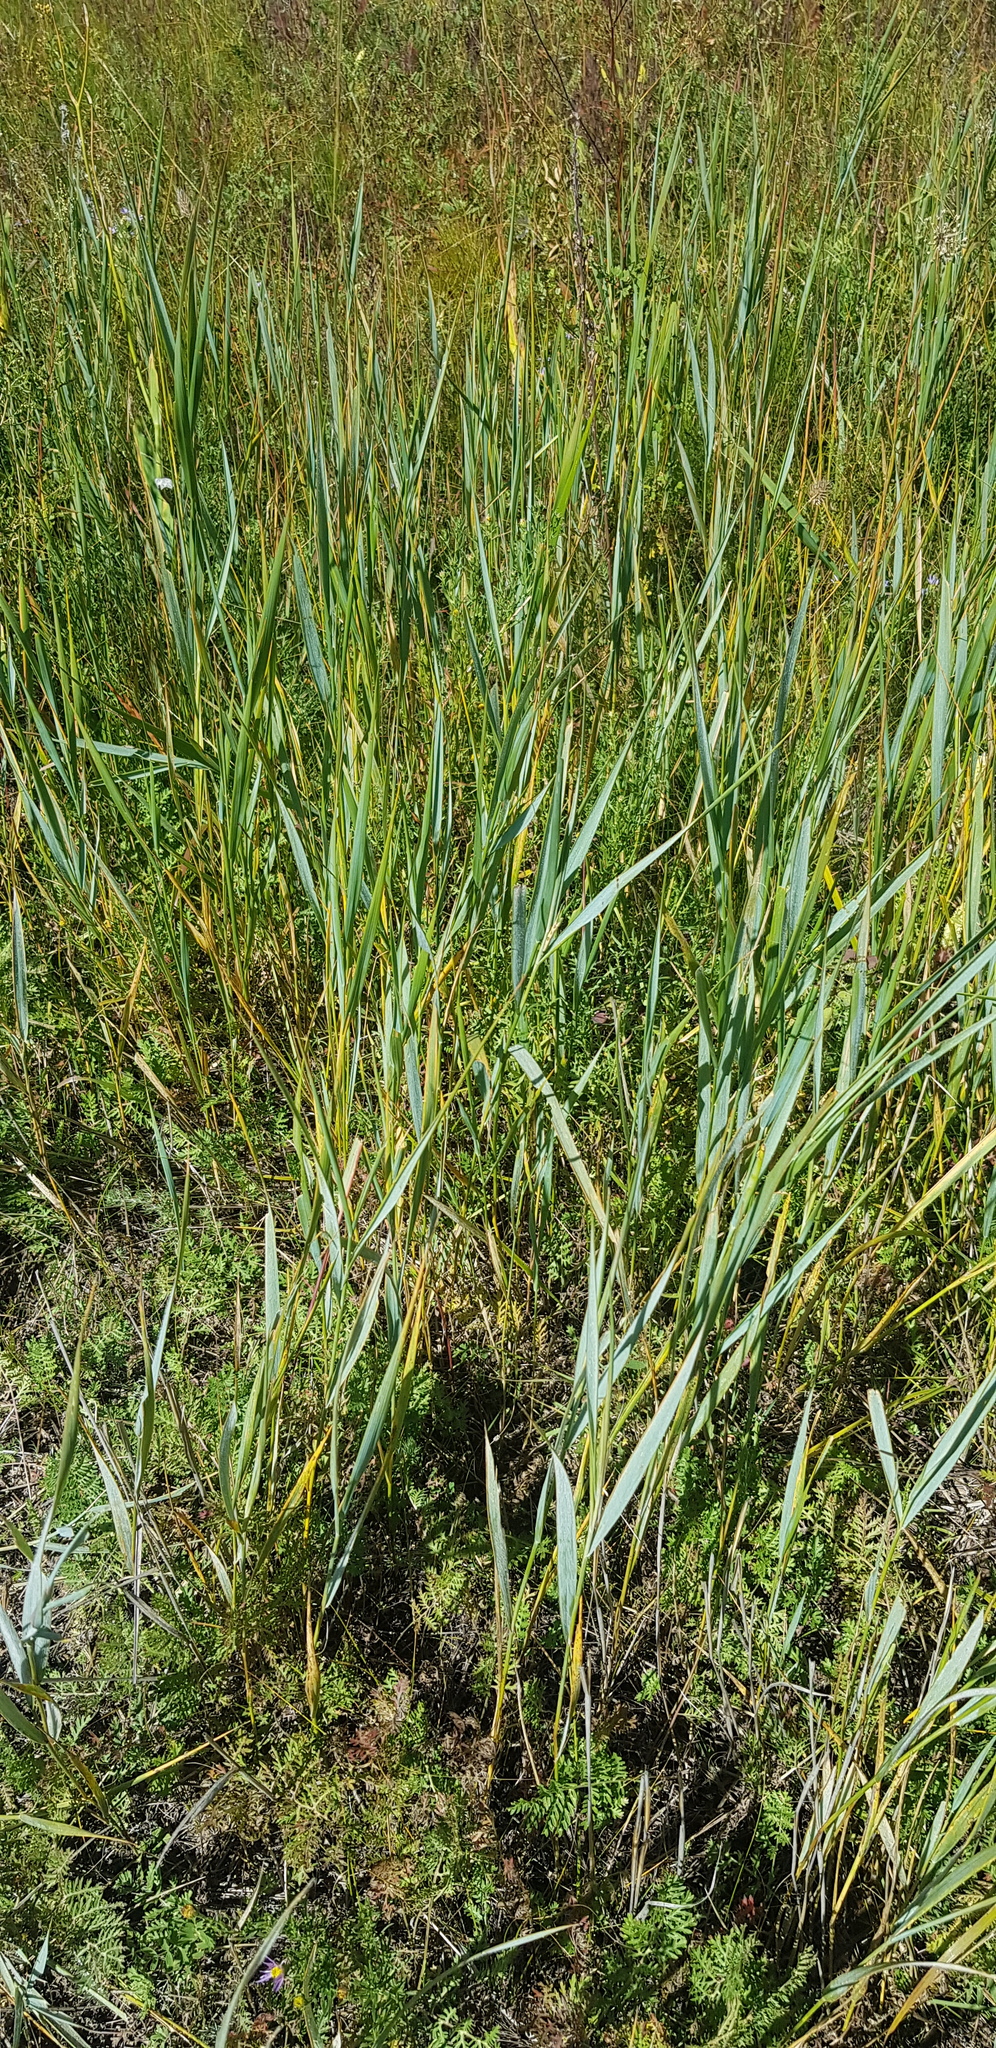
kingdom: Plantae
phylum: Tracheophyta
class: Liliopsida
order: Poales
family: Poaceae
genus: Leymus
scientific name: Leymus chinensis
